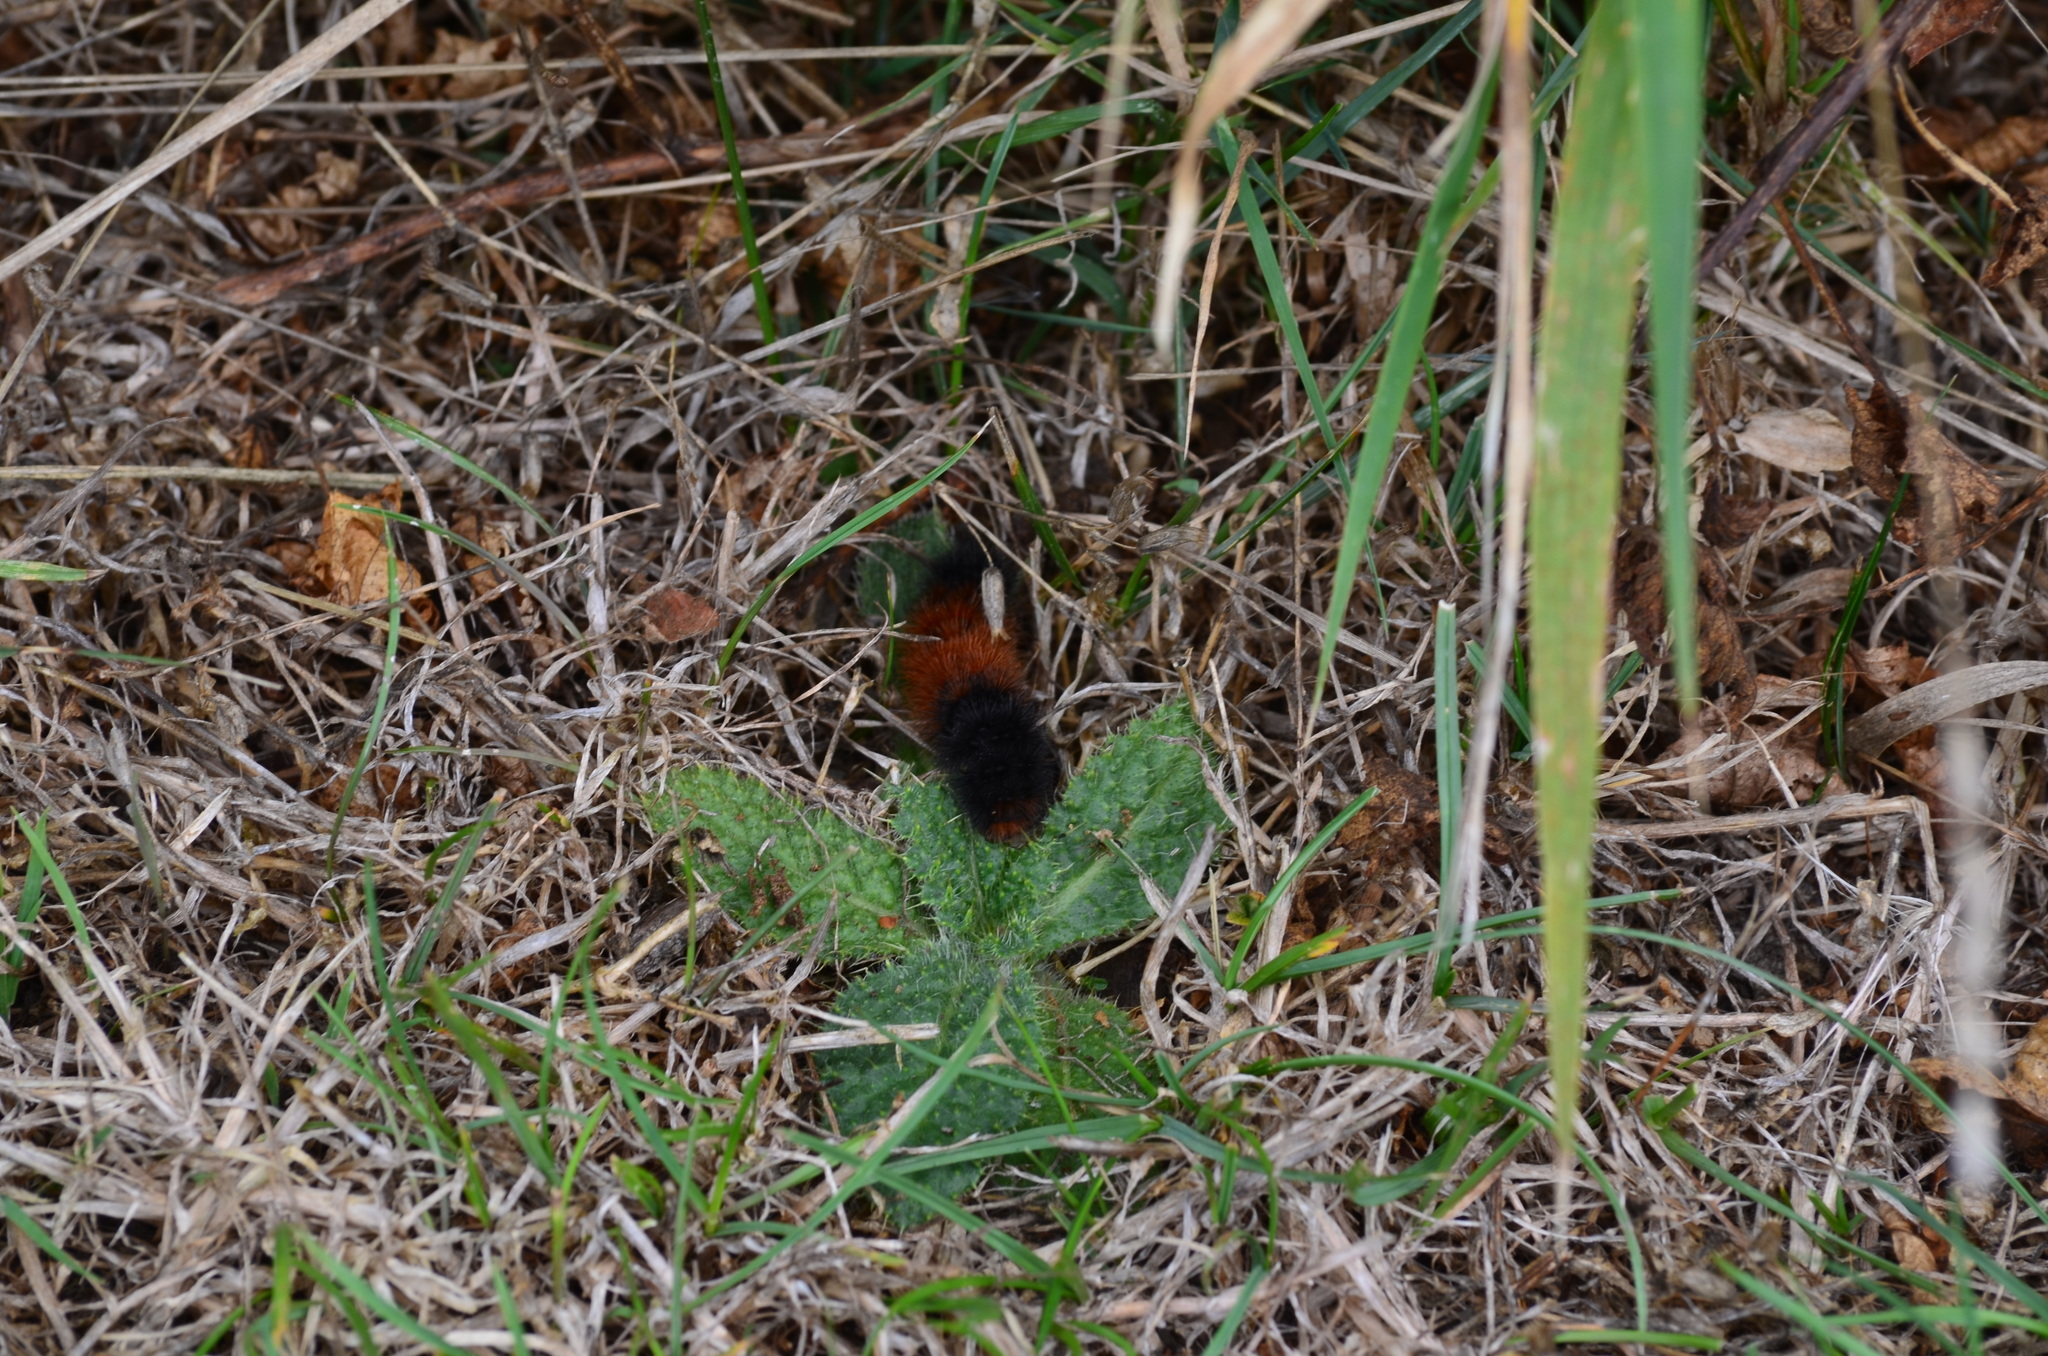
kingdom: Animalia
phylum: Arthropoda
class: Insecta
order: Lepidoptera
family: Erebidae
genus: Pyrrharctia
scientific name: Pyrrharctia isabella
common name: Isabella tiger moth
